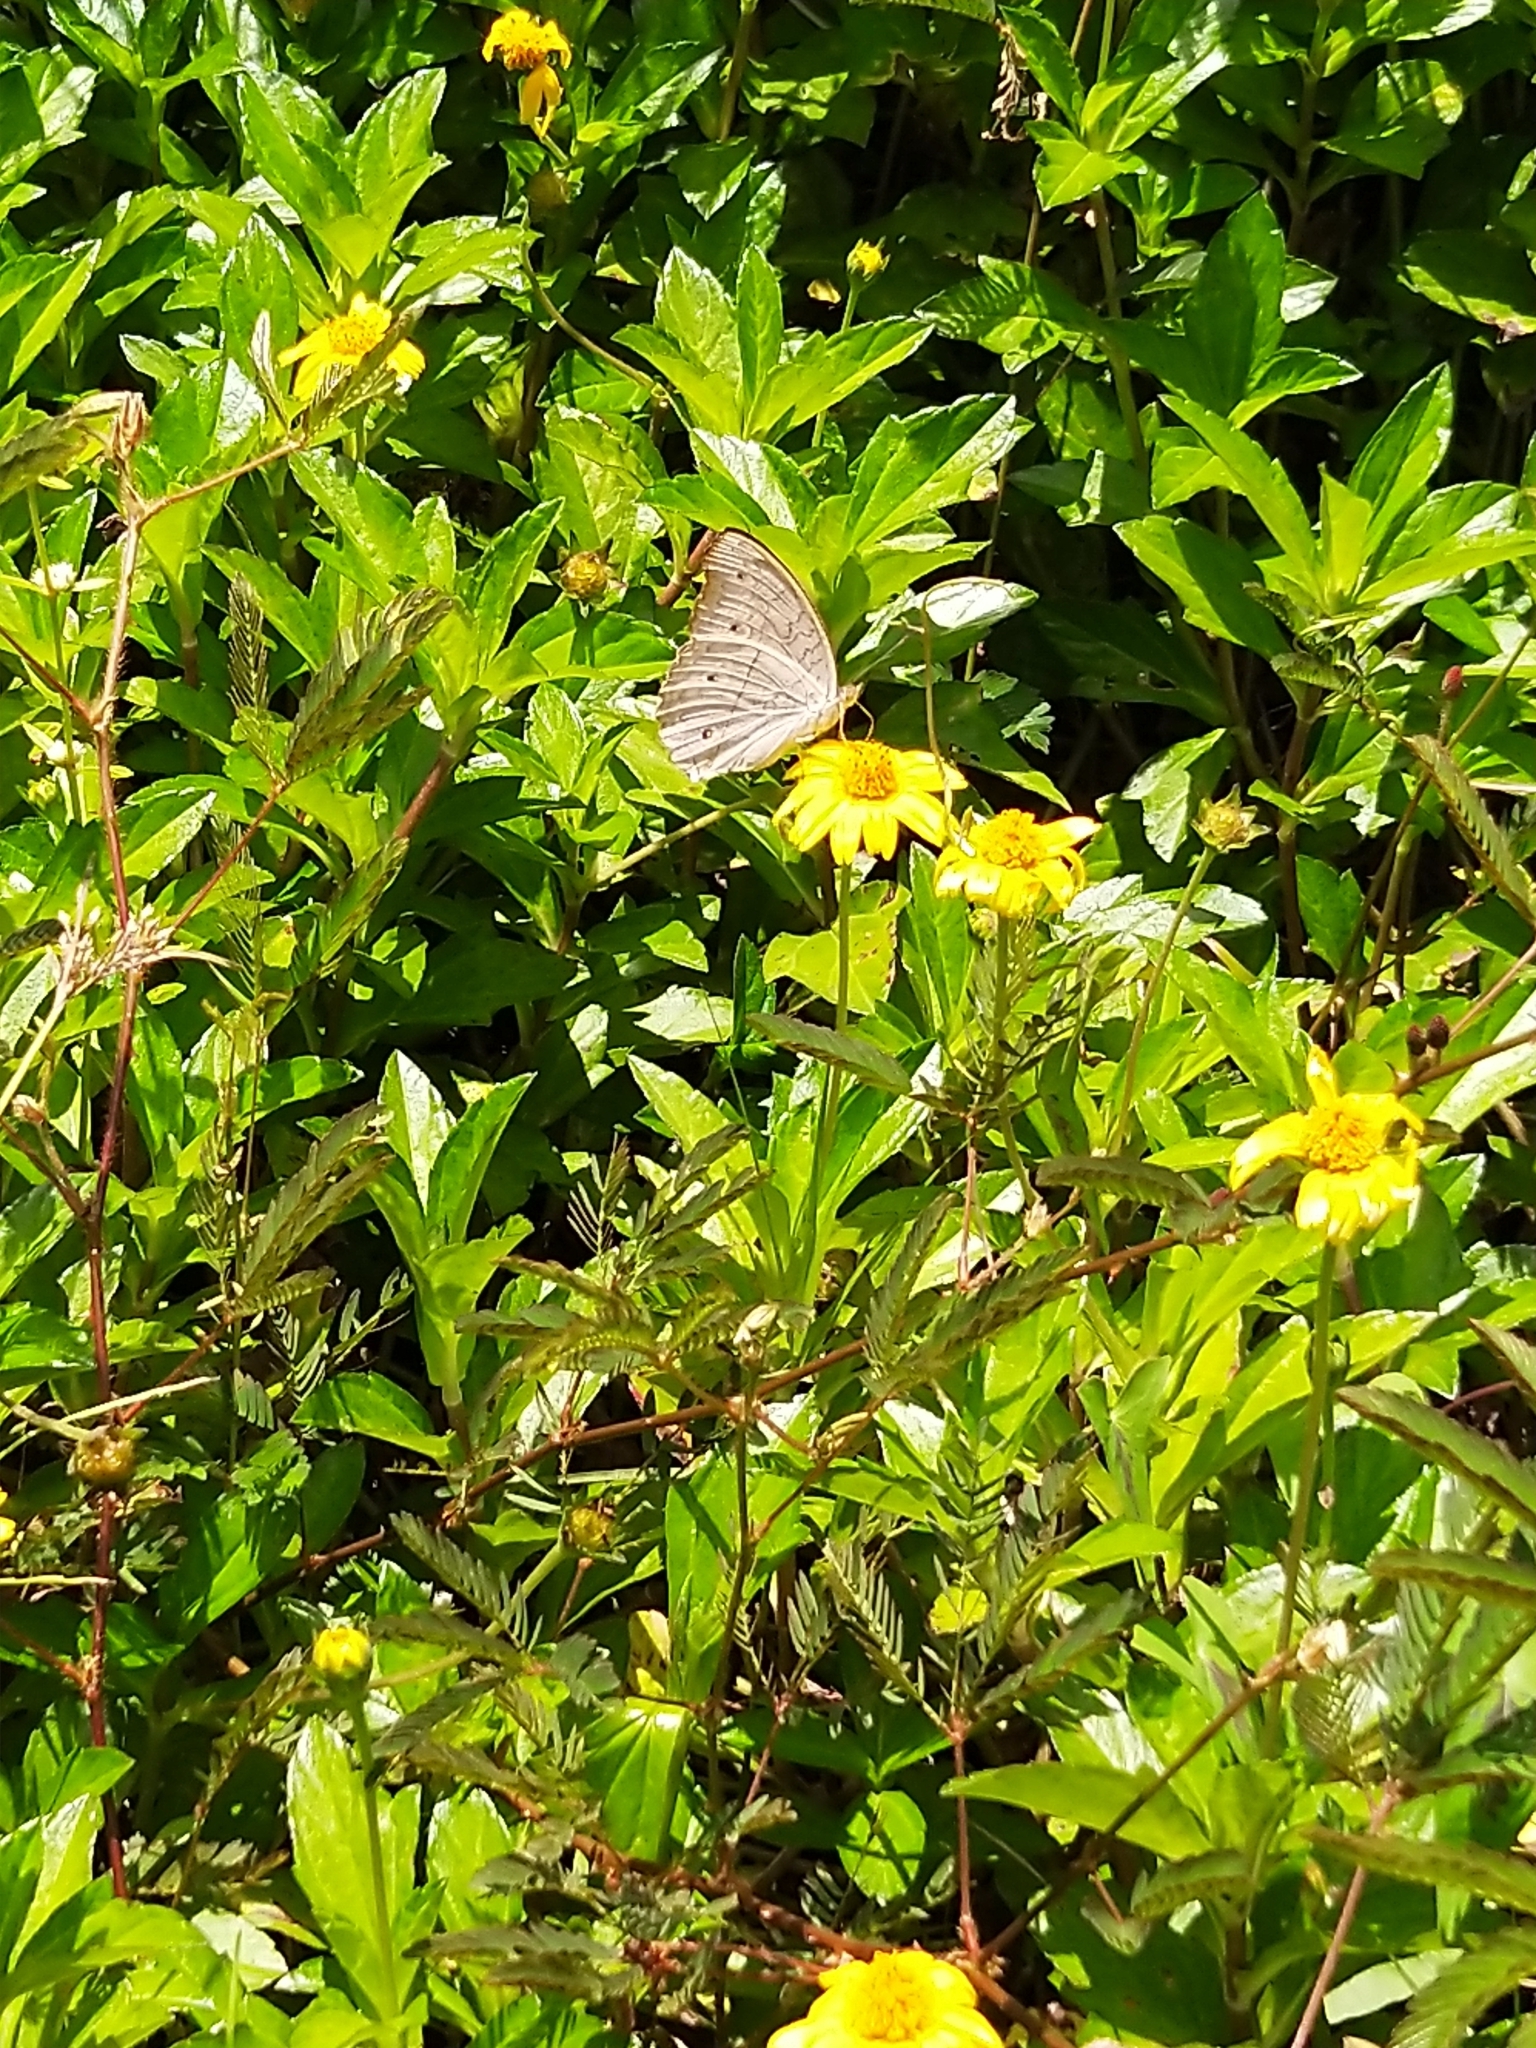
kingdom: Animalia
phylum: Arthropoda
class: Insecta
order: Lepidoptera
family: Nymphalidae
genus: Junonia
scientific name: Junonia atlites
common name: Grey pansy
